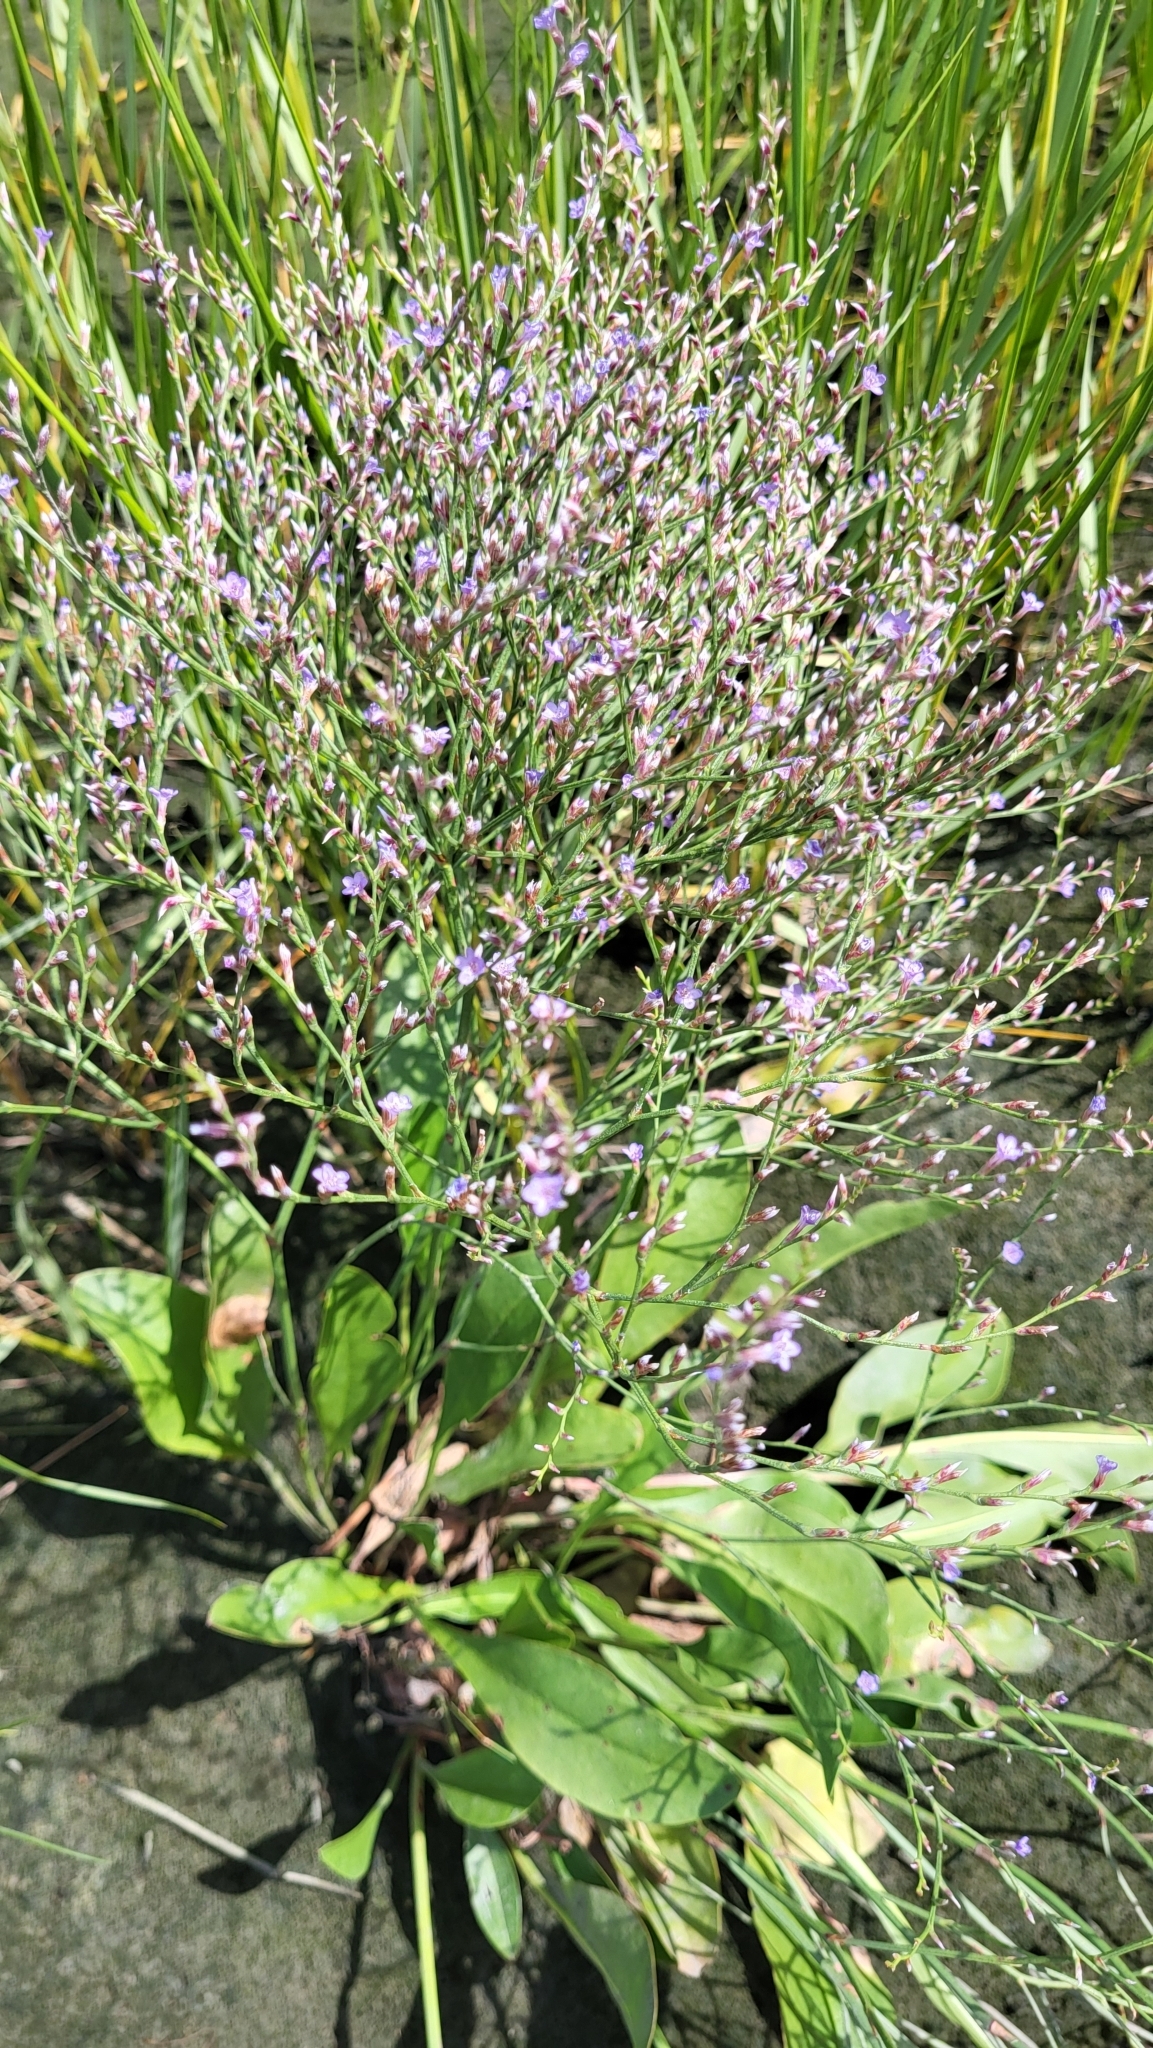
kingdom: Plantae
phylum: Tracheophyta
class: Magnoliopsida
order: Caryophyllales
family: Plumbaginaceae
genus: Limonium
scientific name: Limonium carolinianum
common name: Carolina sea lavender
